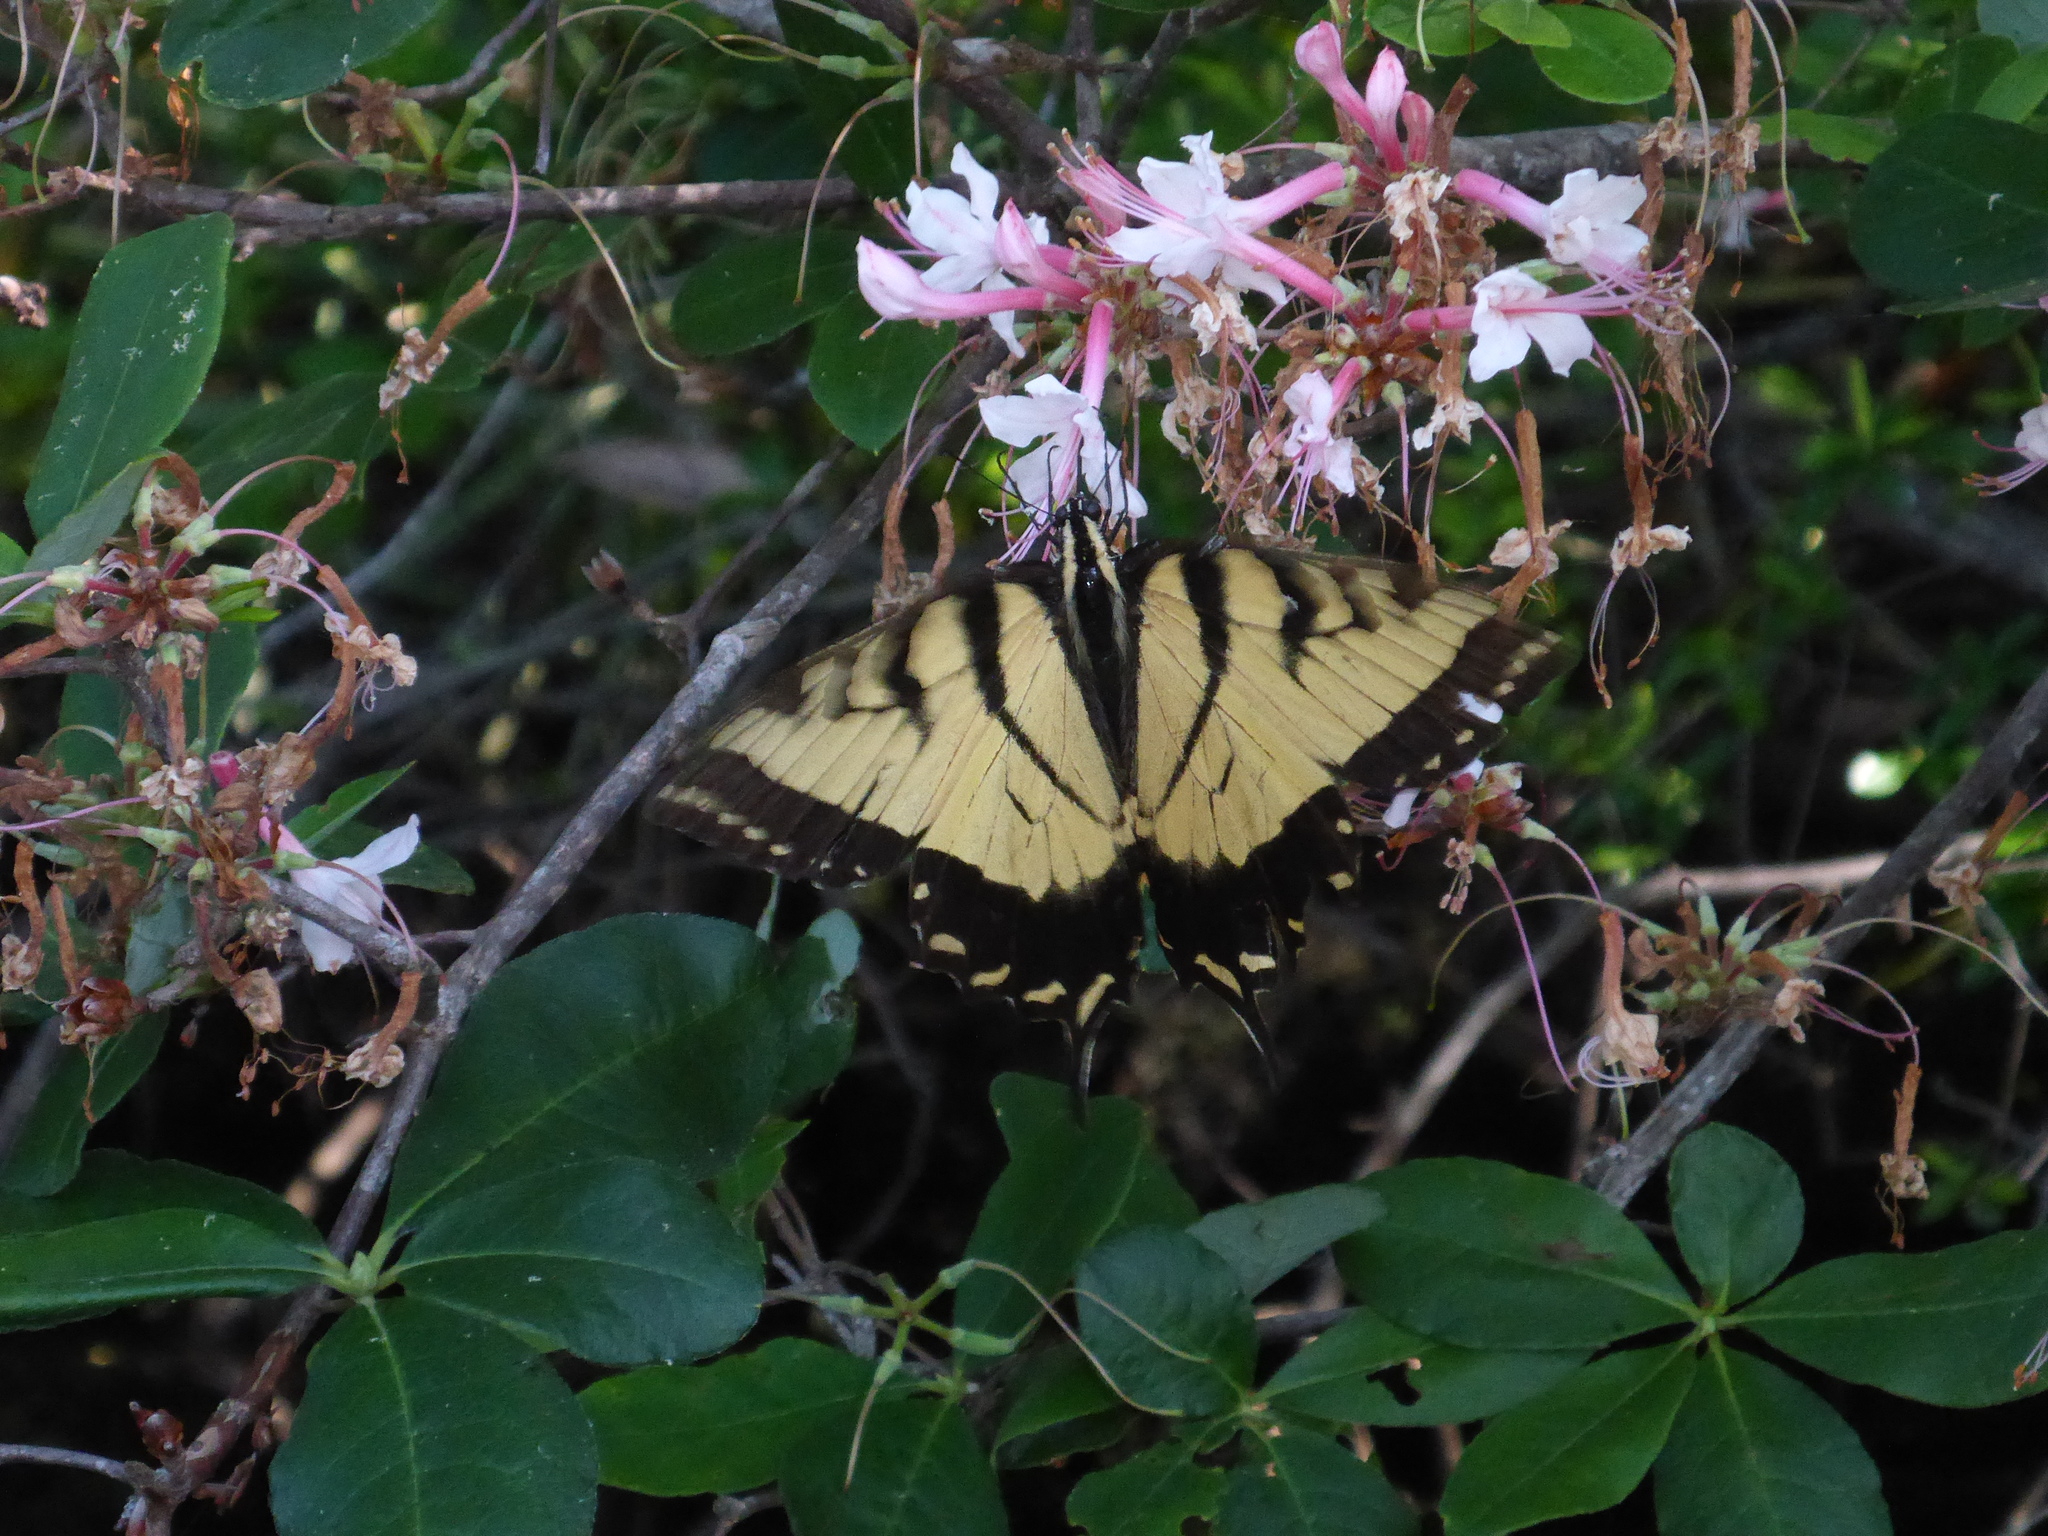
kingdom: Animalia
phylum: Arthropoda
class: Insecta
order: Lepidoptera
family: Papilionidae
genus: Papilio
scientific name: Papilio glaucus
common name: Tiger swallowtail
